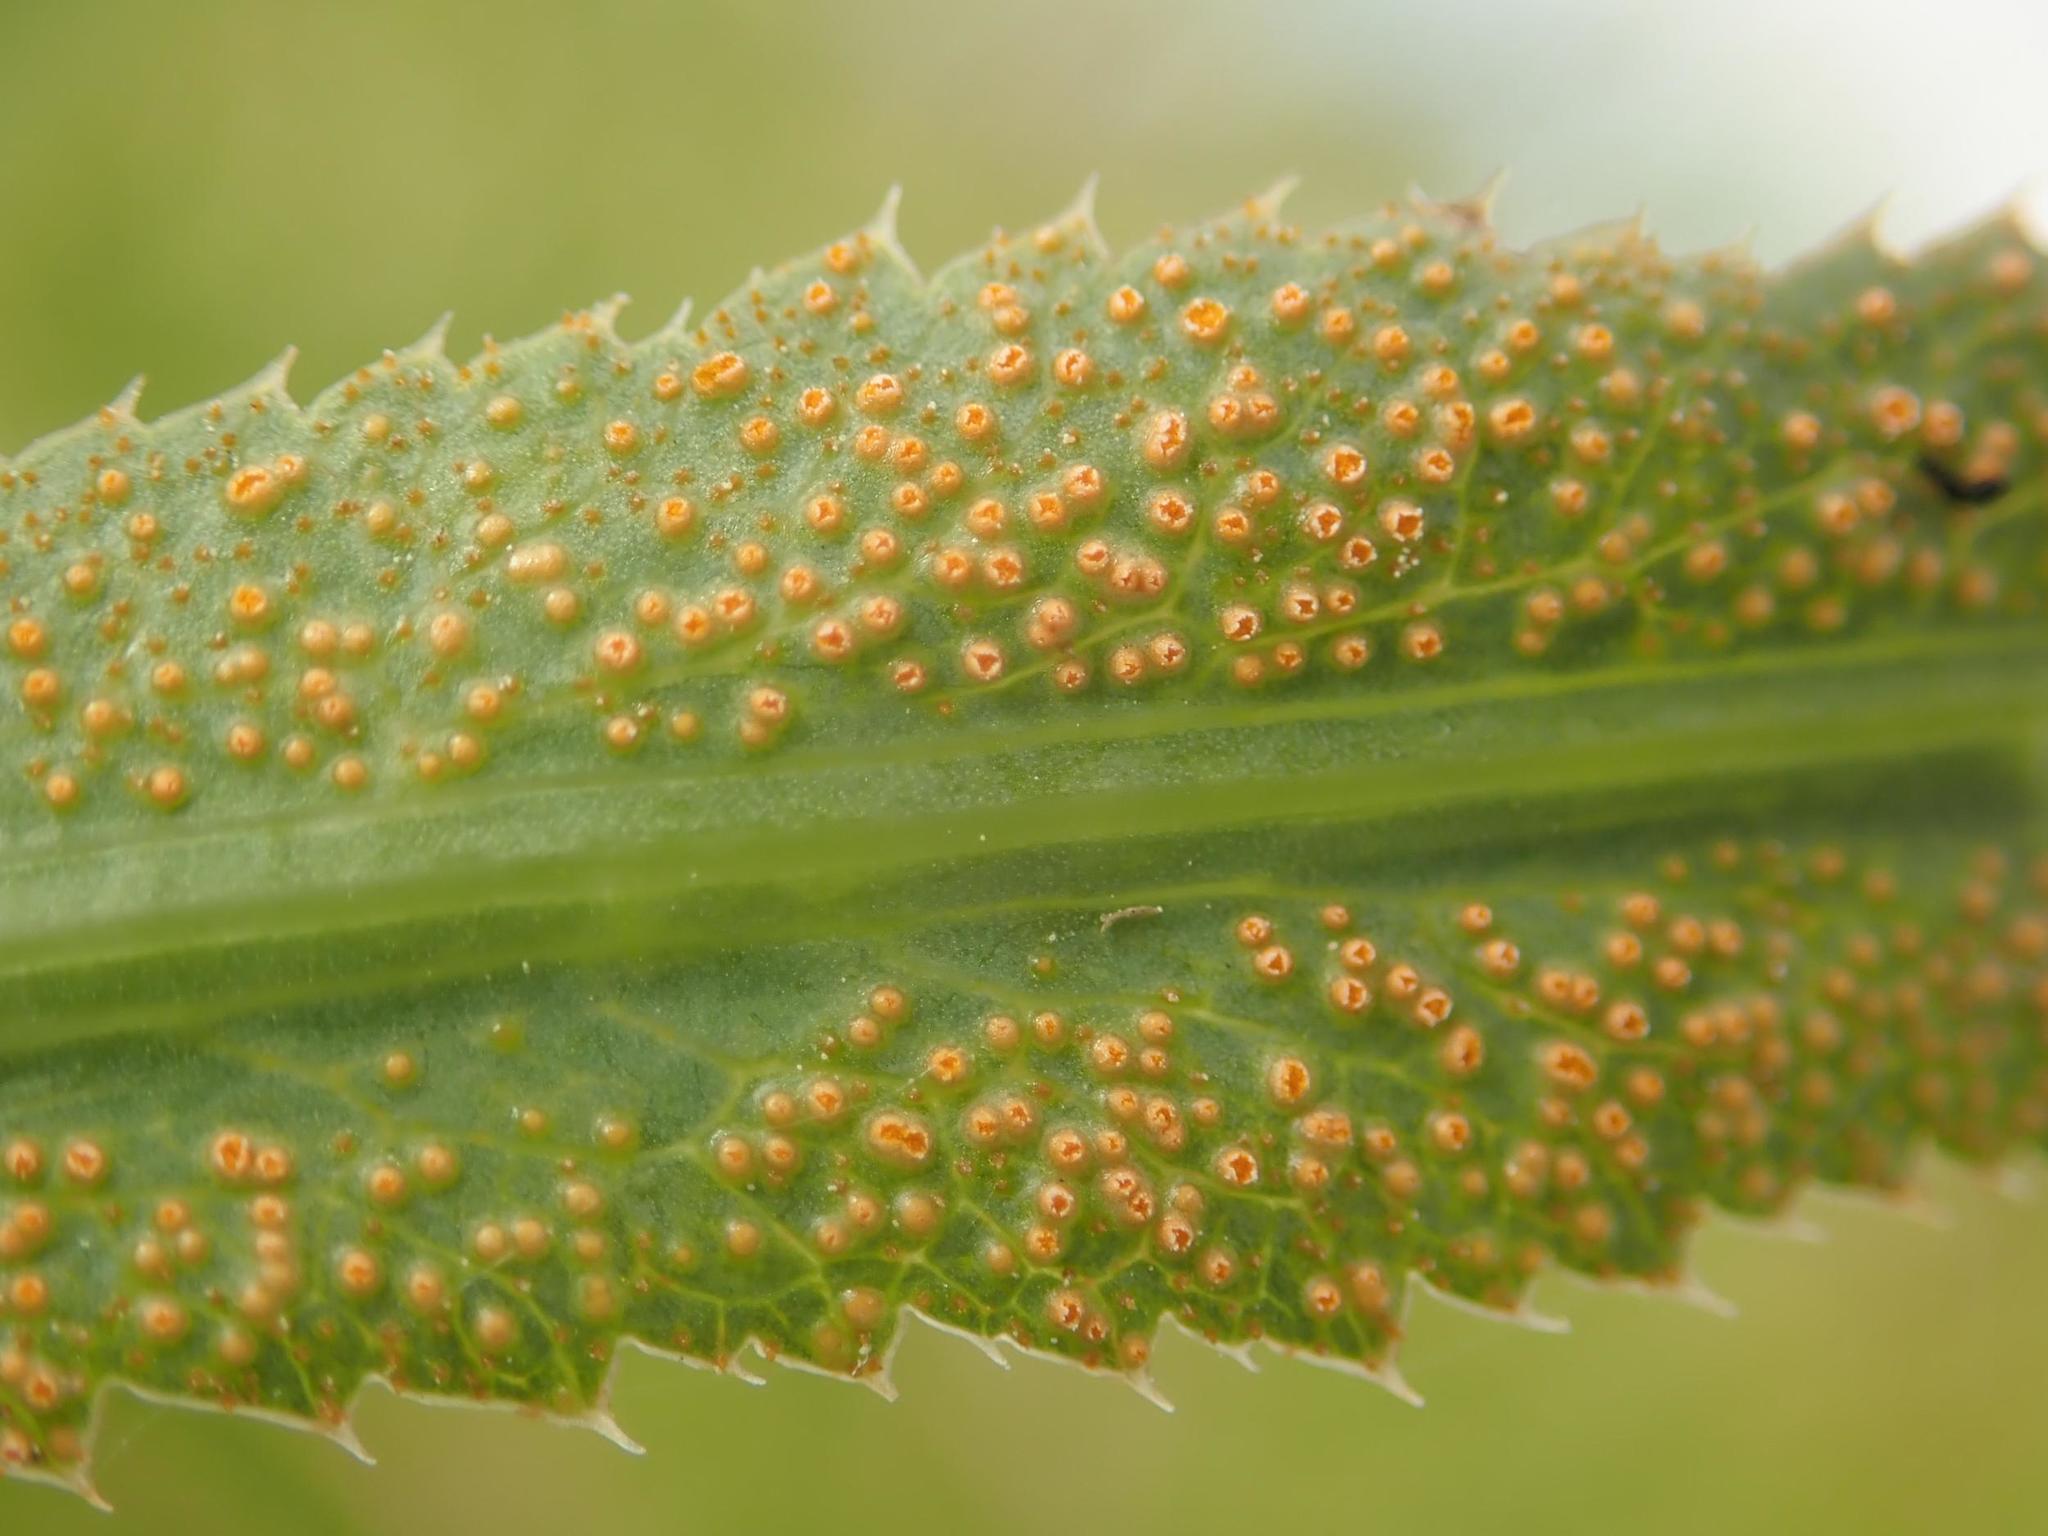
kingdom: Fungi
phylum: Basidiomycota
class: Pucciniomycetes
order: Pucciniales
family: Pucciniaceae
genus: Puccinia
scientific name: Puccinia sii-falcariae
